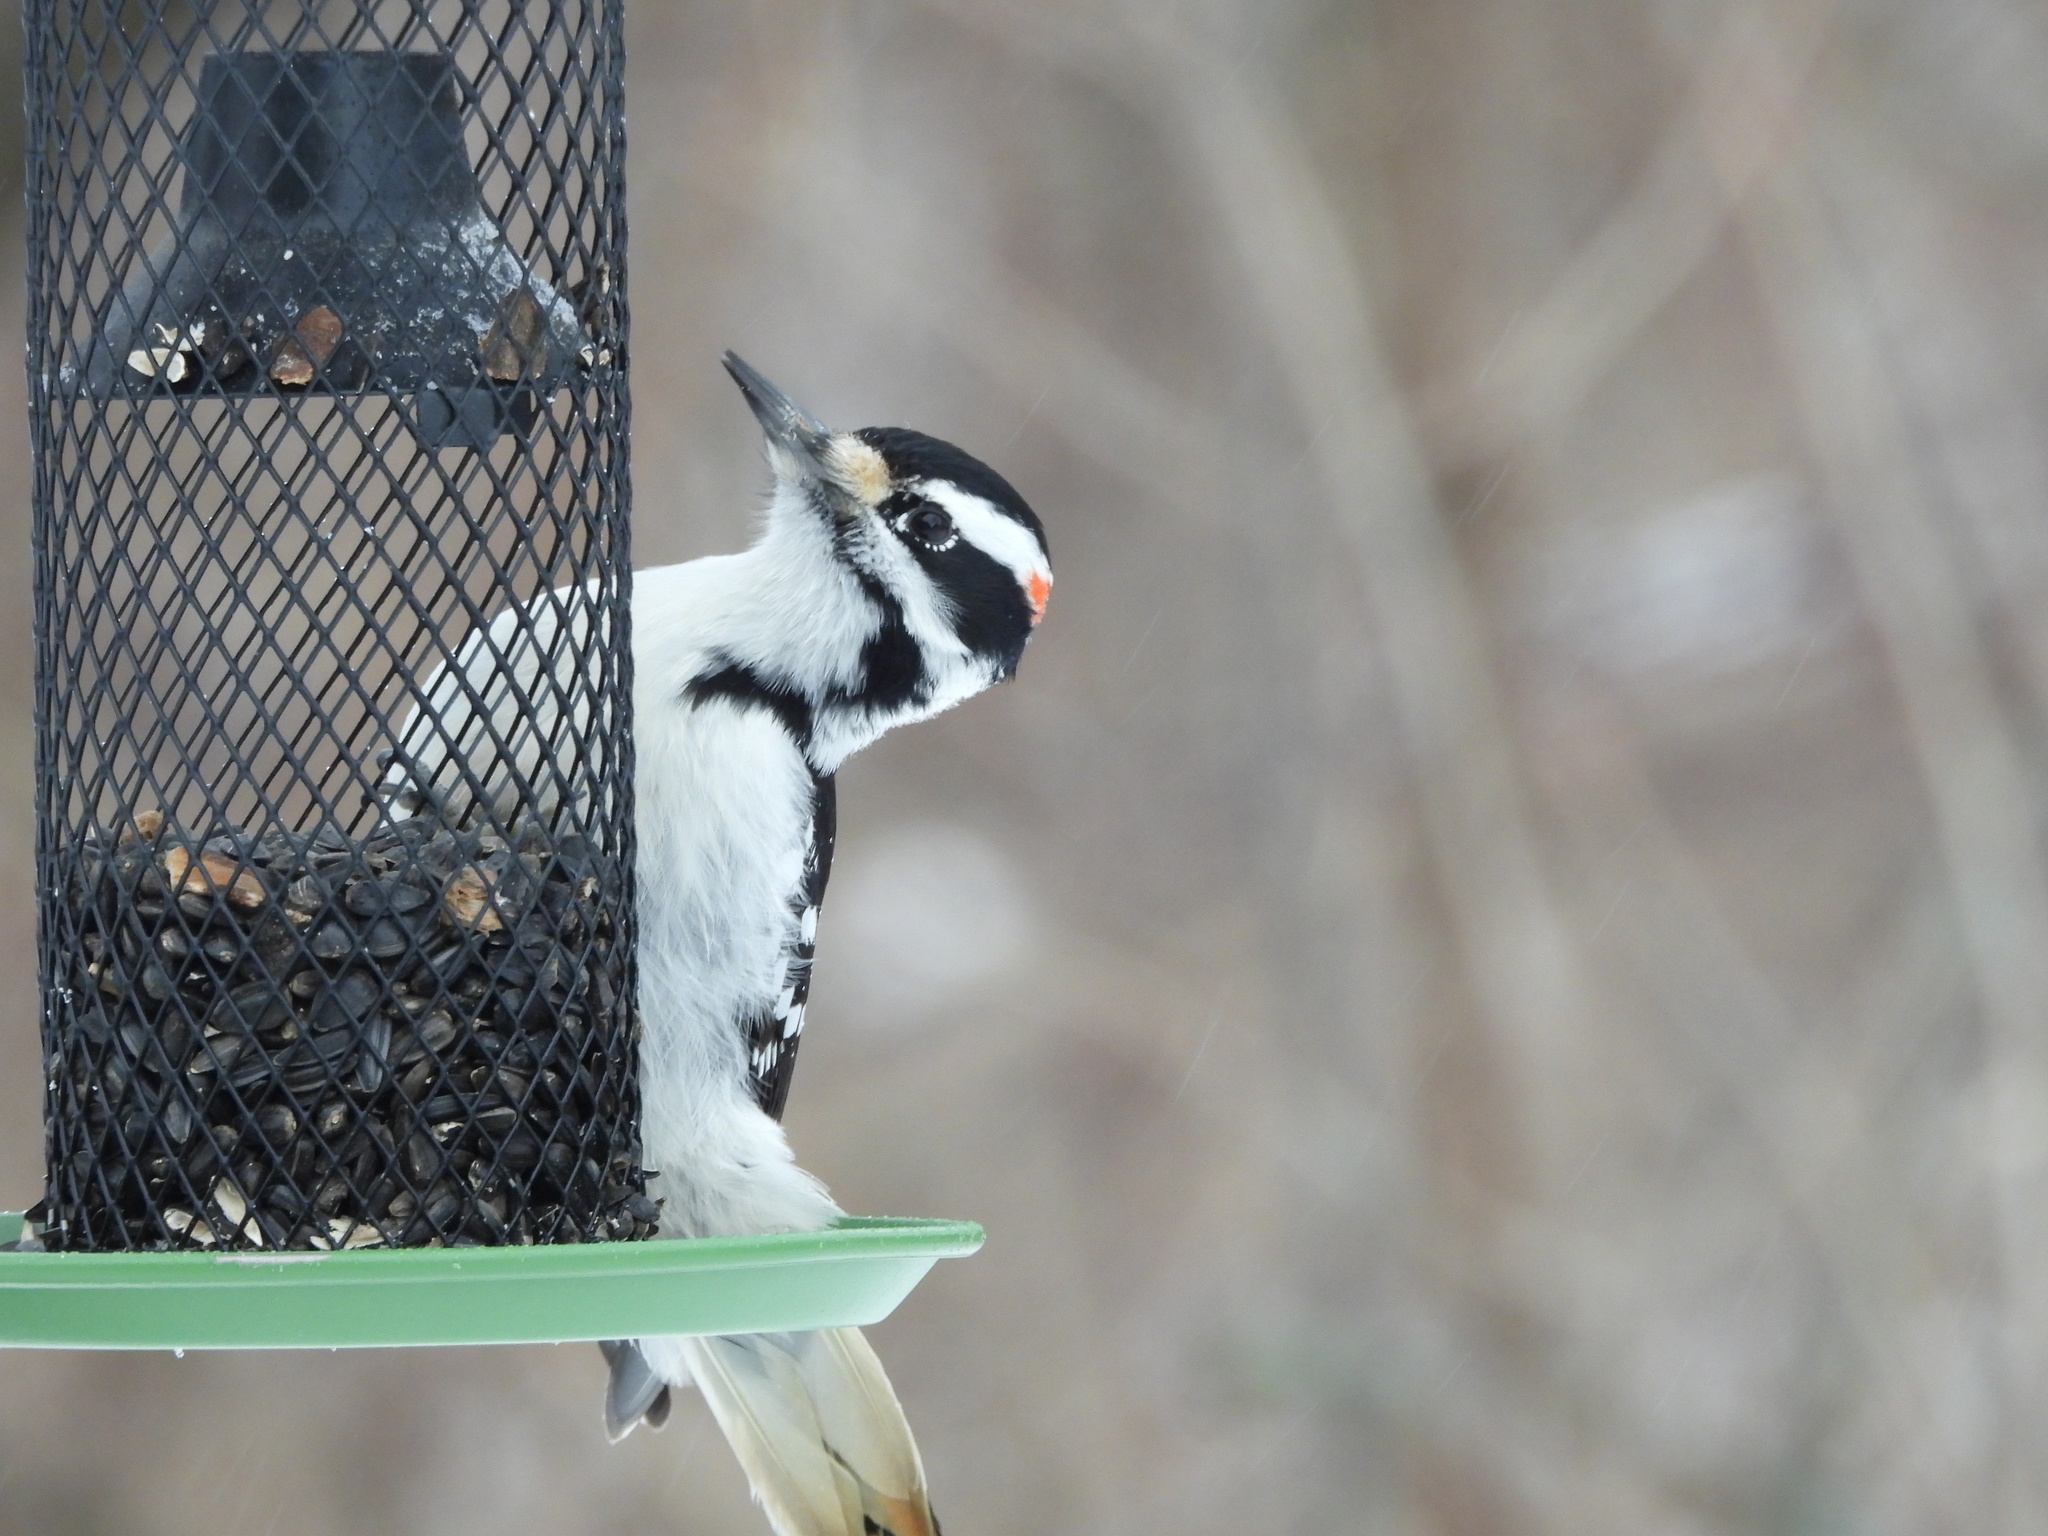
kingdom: Animalia
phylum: Chordata
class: Aves
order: Piciformes
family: Picidae
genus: Leuconotopicus
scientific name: Leuconotopicus villosus
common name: Hairy woodpecker
